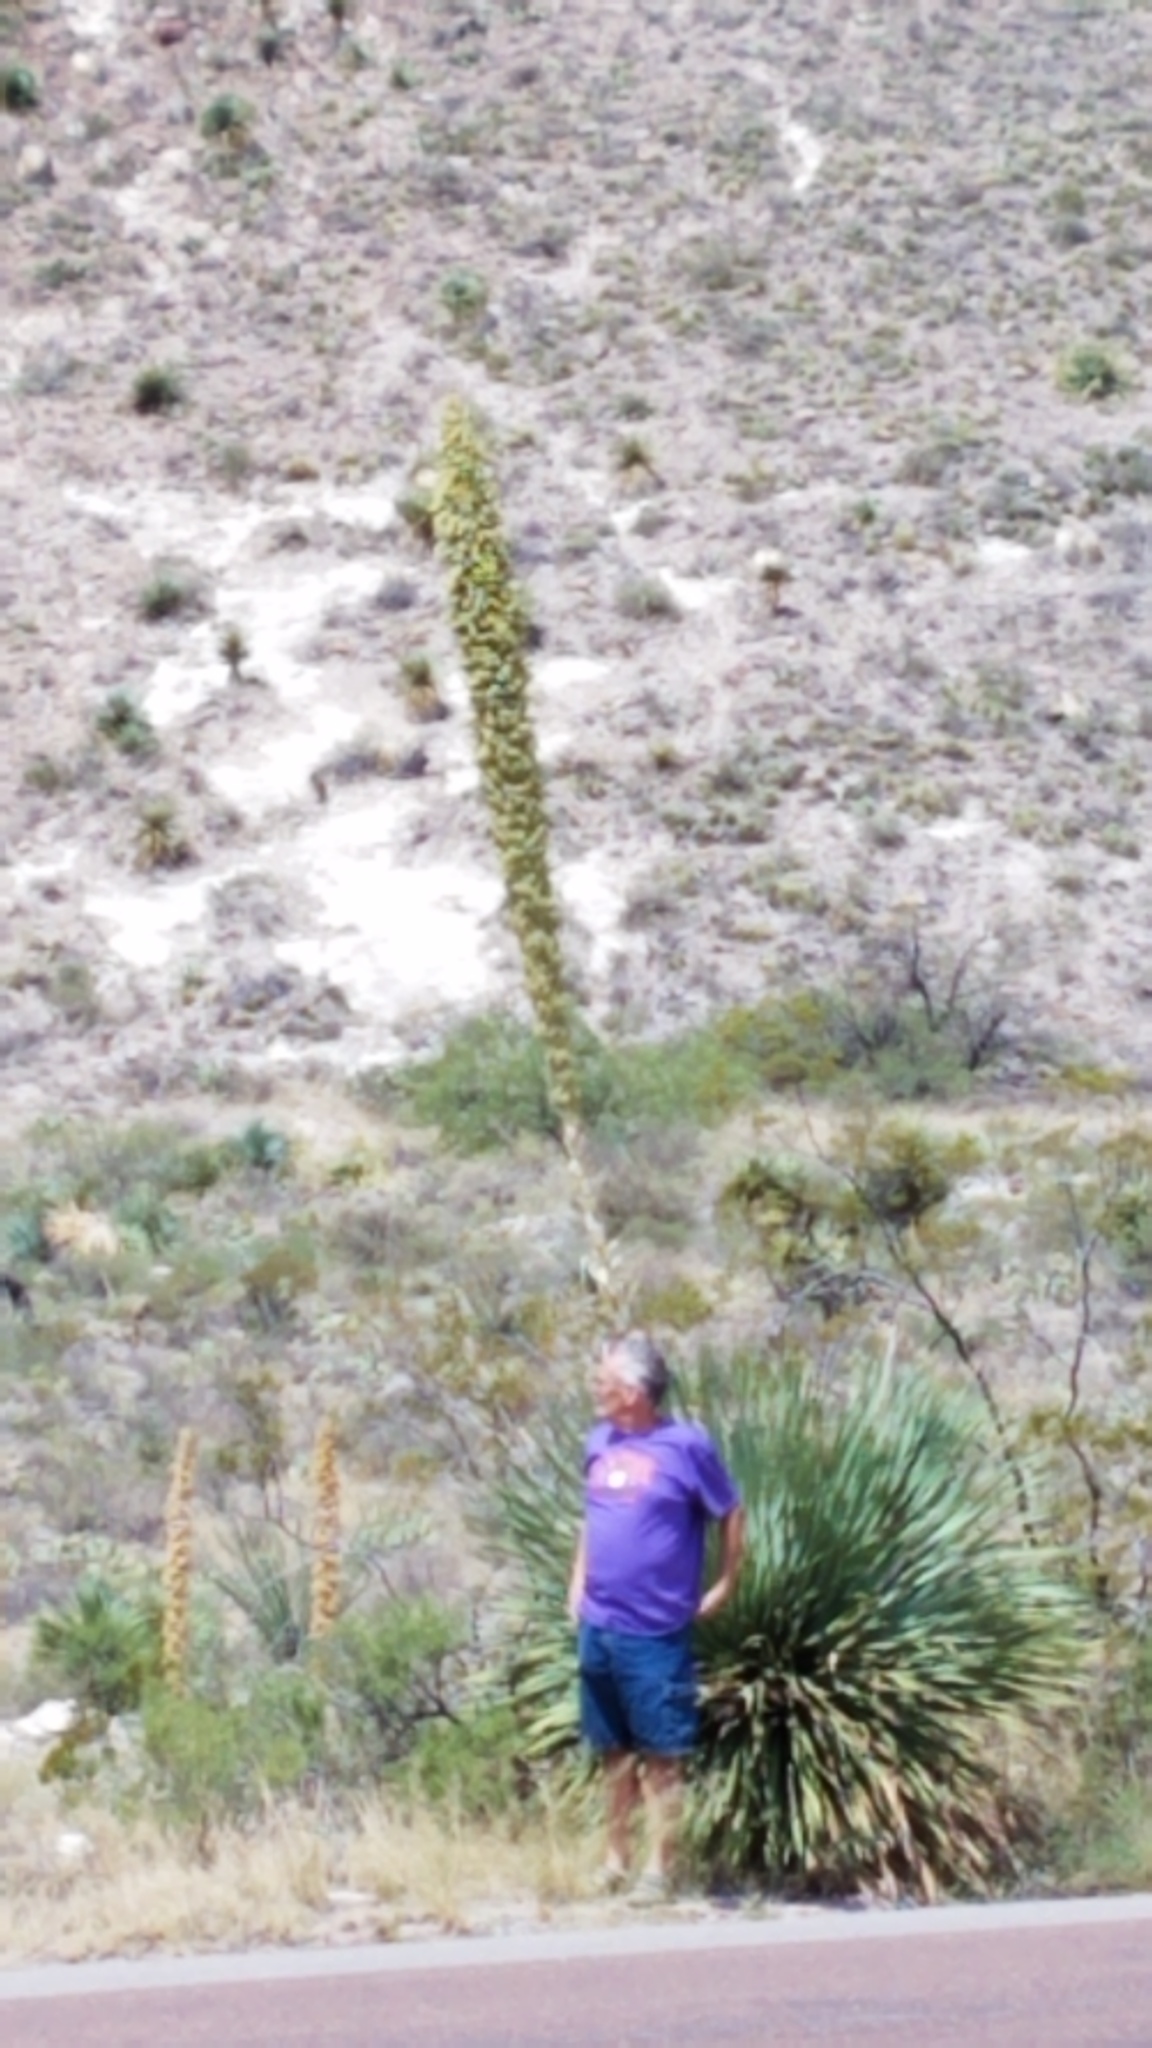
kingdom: Plantae
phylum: Tracheophyta
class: Liliopsida
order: Asparagales
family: Asparagaceae
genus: Dasylirion
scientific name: Dasylirion wheeleri
